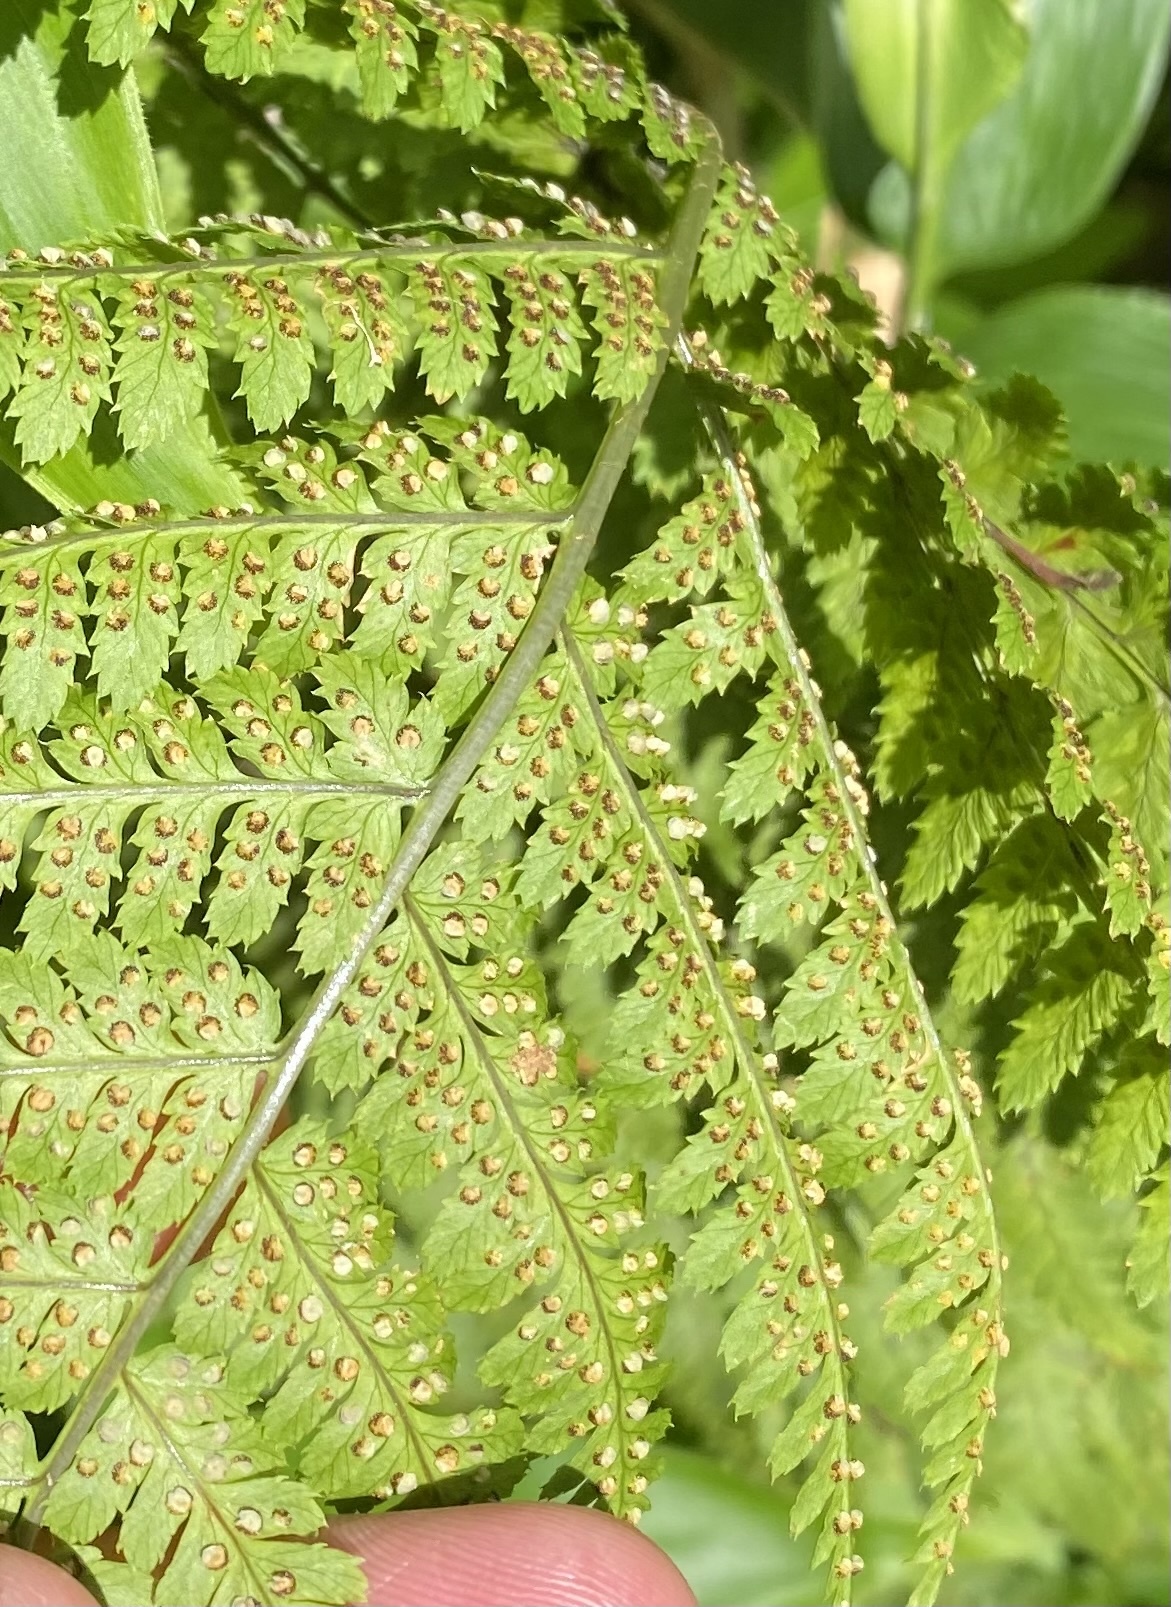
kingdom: Plantae
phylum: Tracheophyta
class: Polypodiopsida
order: Polypodiales
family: Dryopteridaceae
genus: Dryopteris
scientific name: Dryopteris expansa
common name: Northern buckler fern
